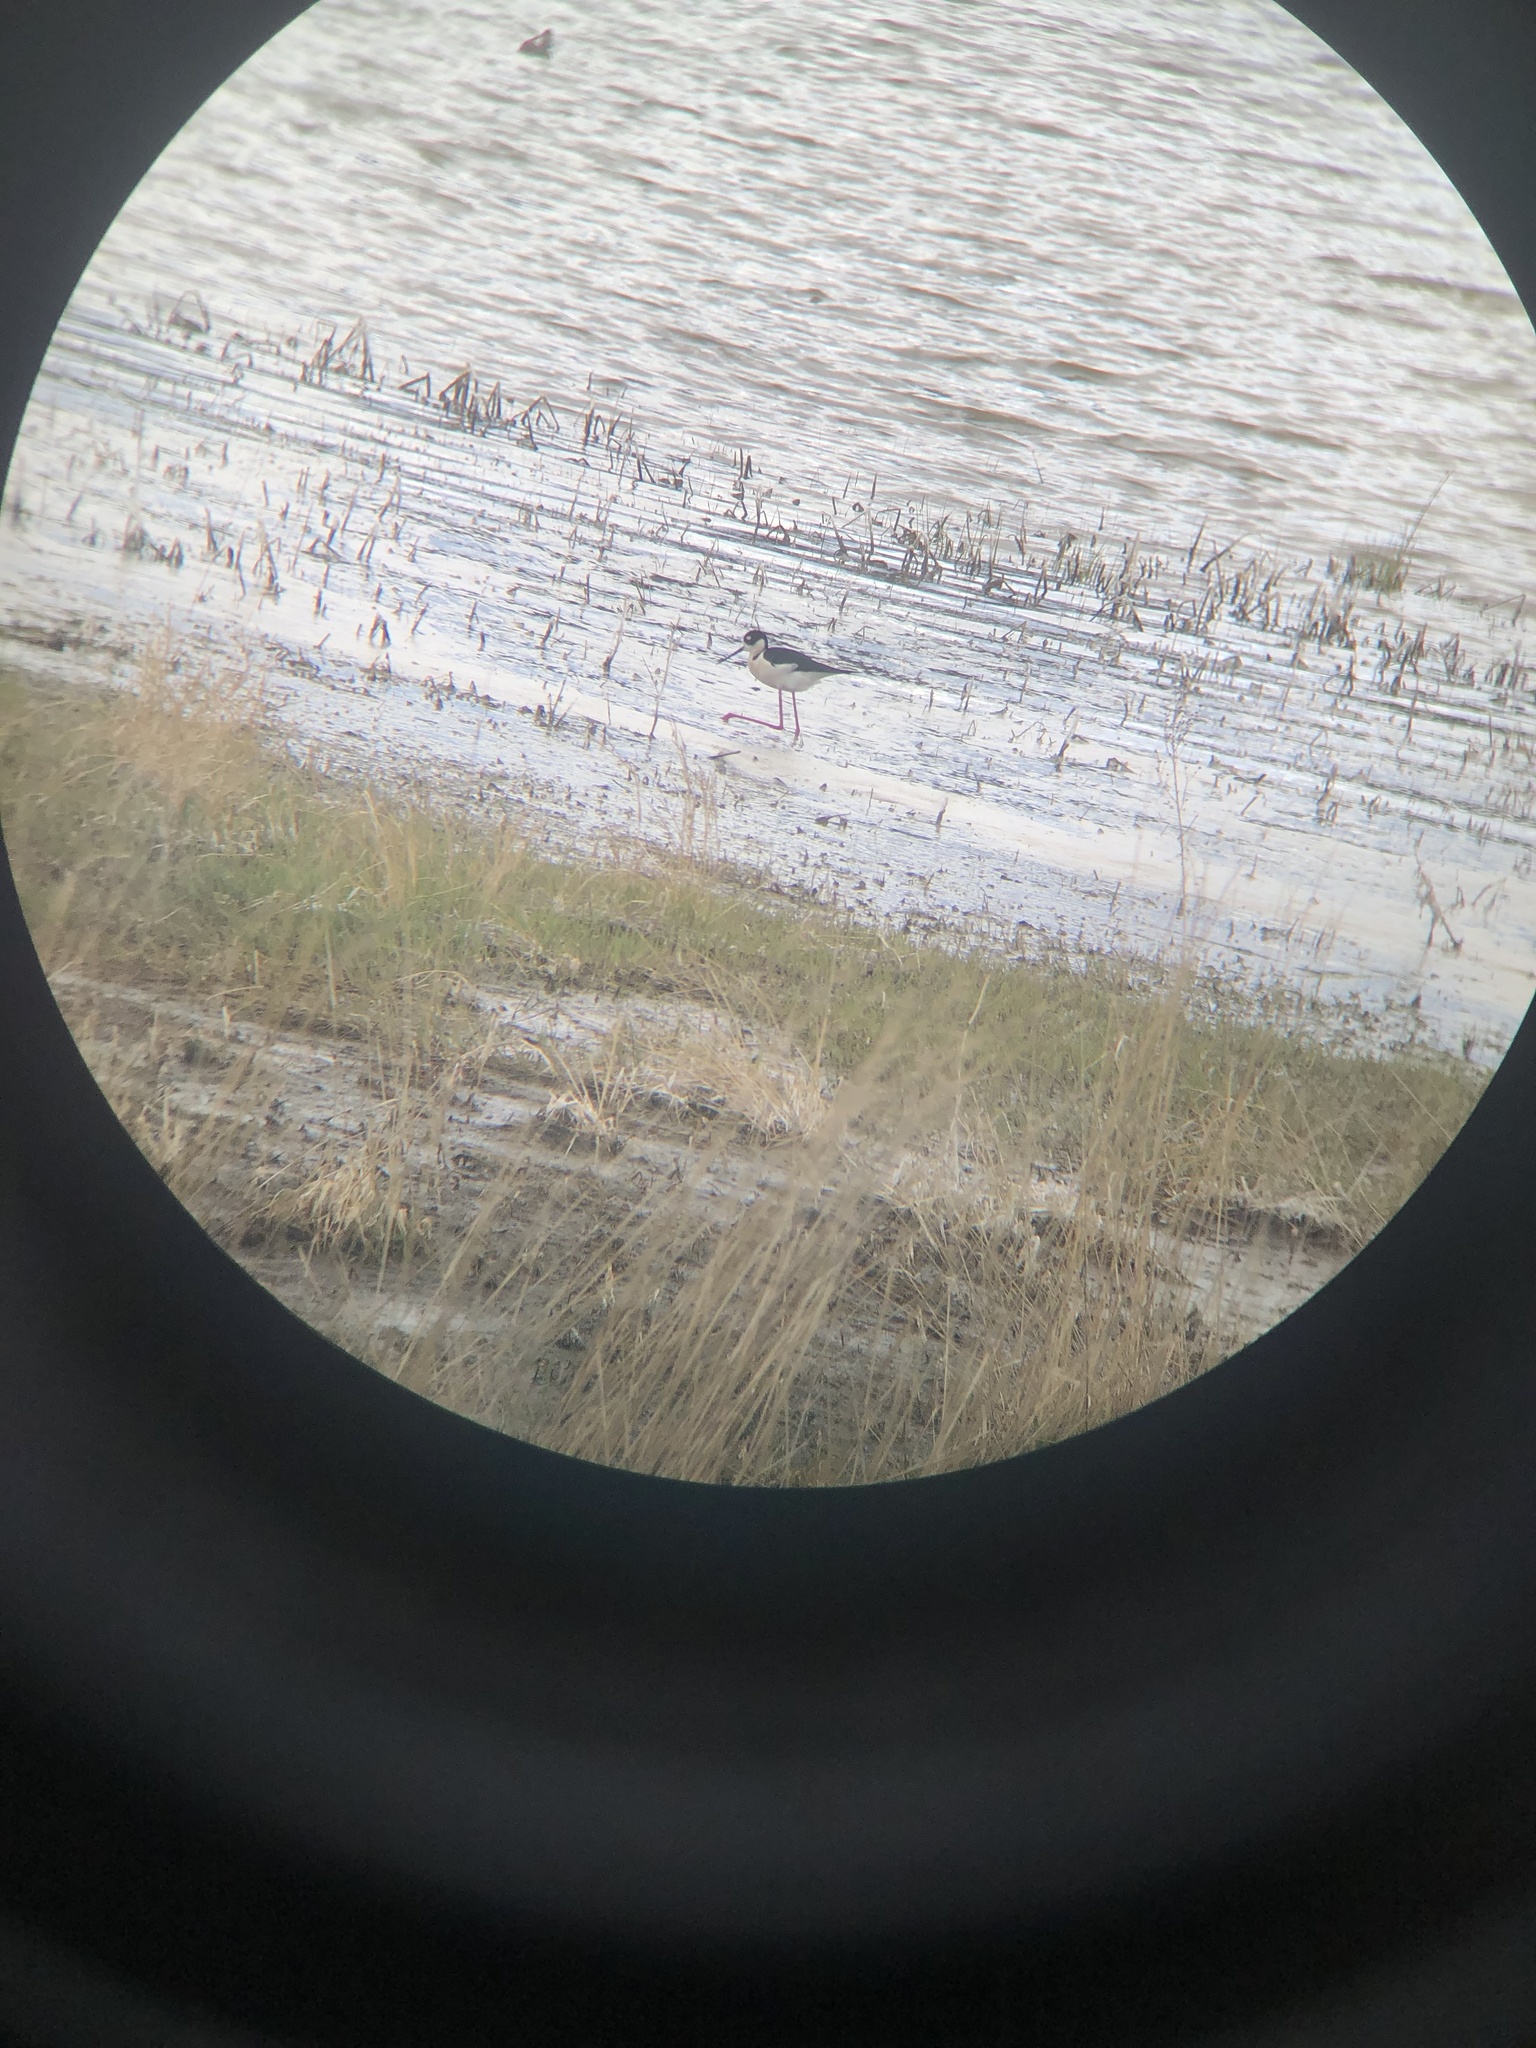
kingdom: Animalia
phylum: Chordata
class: Aves
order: Charadriiformes
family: Recurvirostridae
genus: Himantopus
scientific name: Himantopus mexicanus
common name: Black-necked stilt
